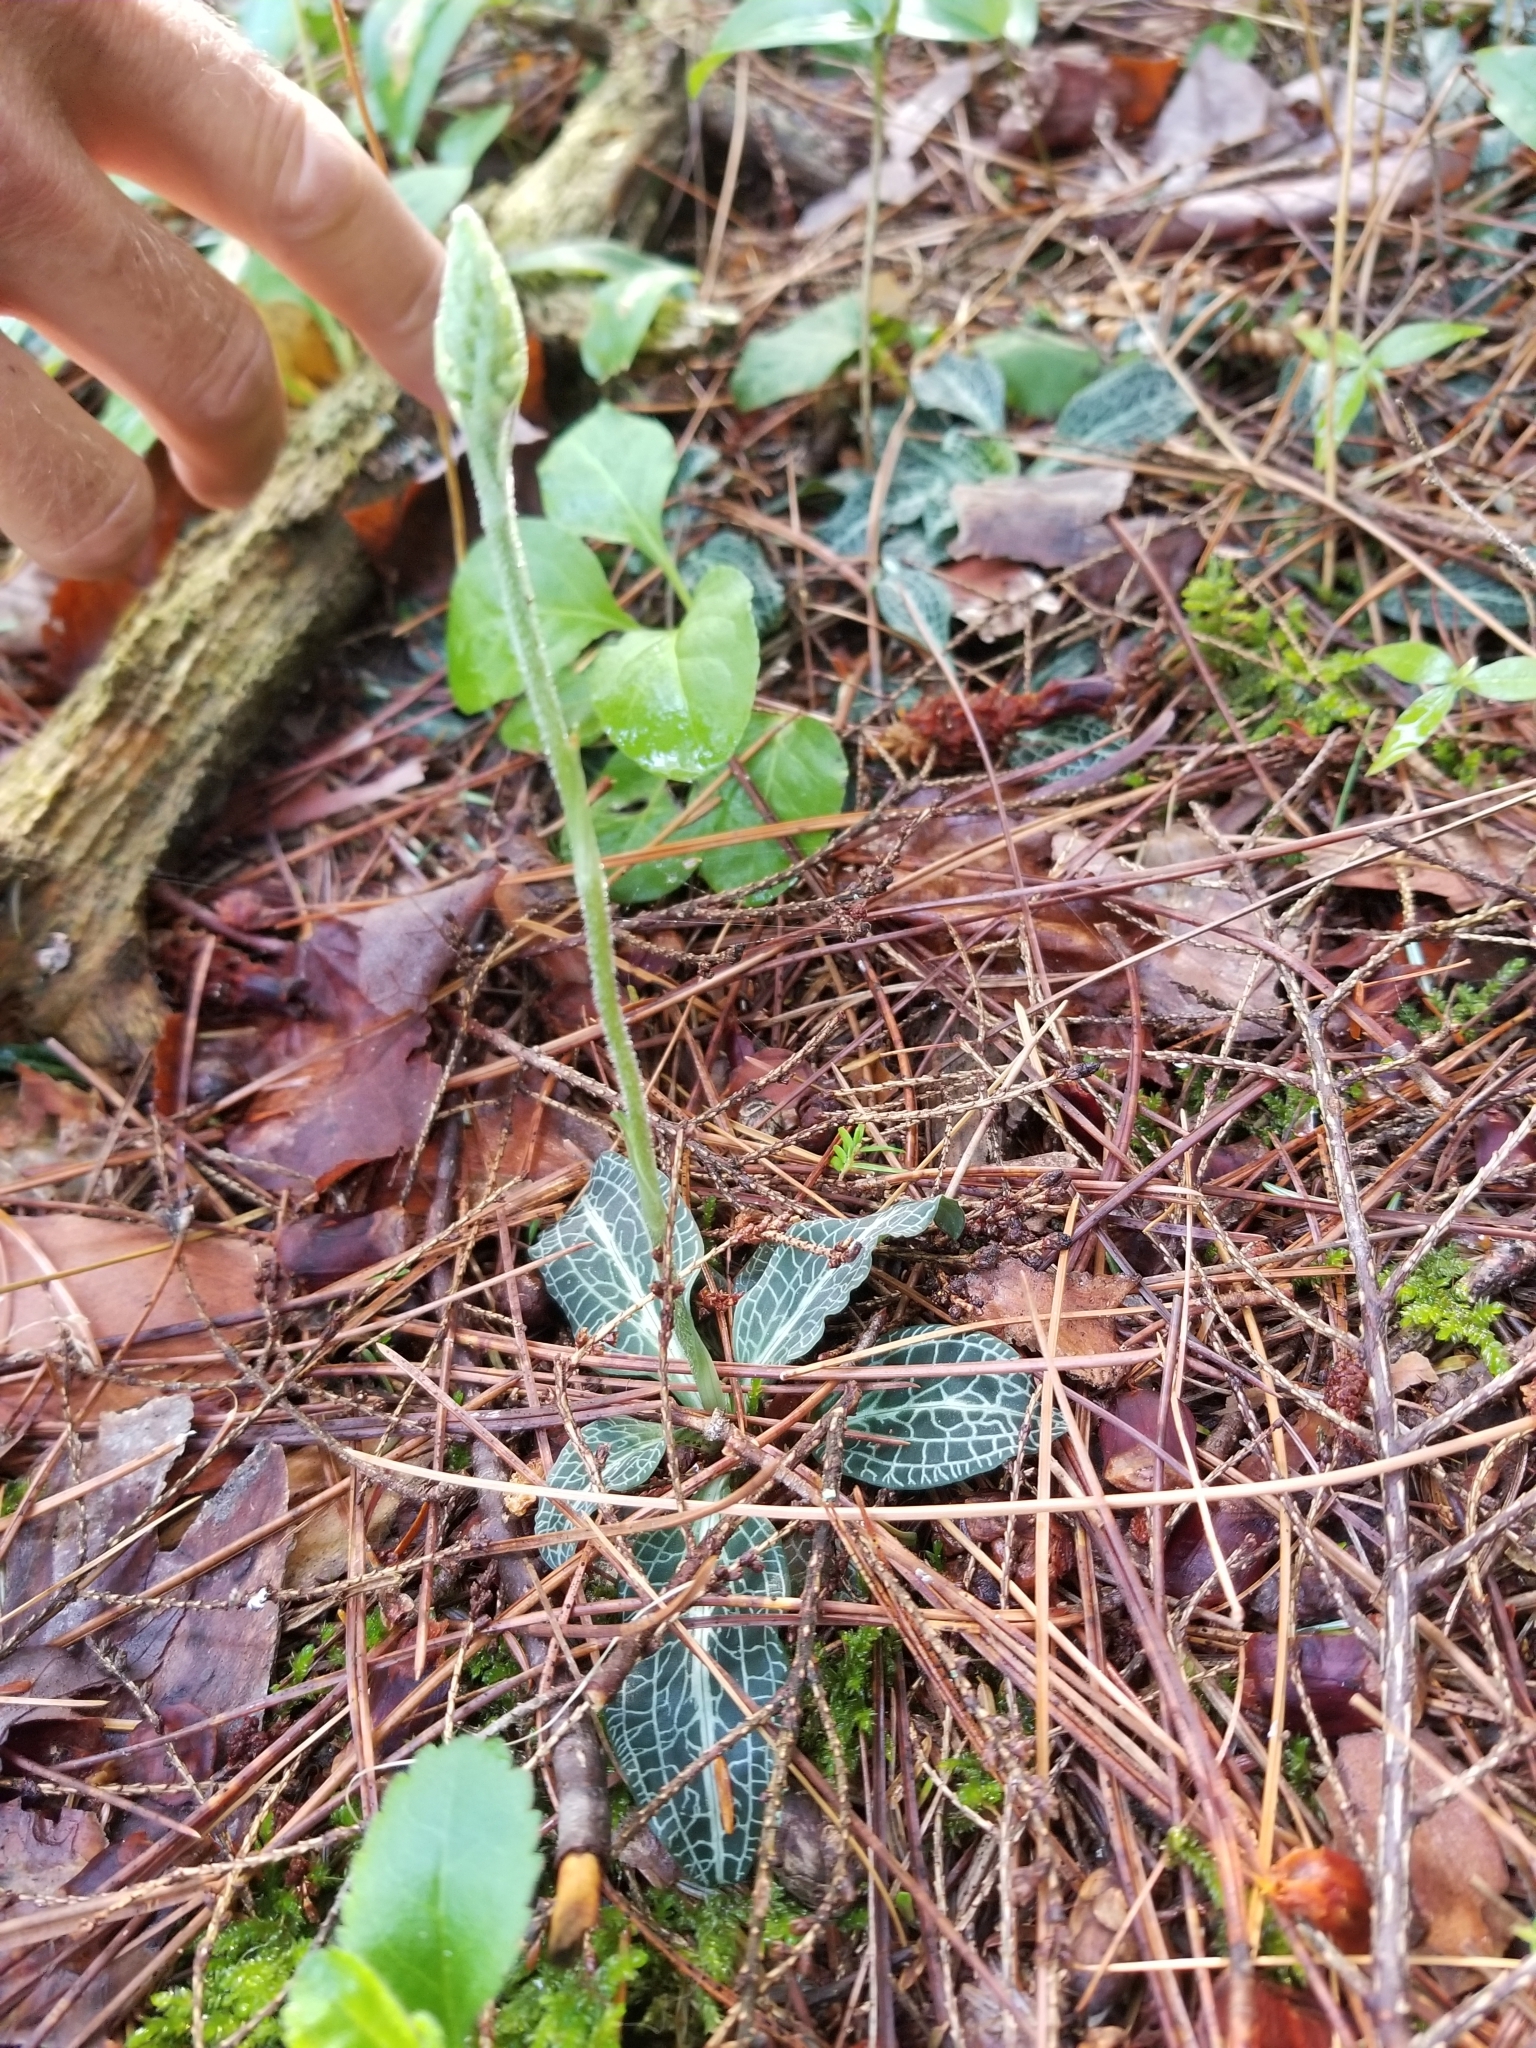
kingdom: Plantae
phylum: Tracheophyta
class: Liliopsida
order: Asparagales
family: Orchidaceae
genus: Goodyera
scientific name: Goodyera pubescens
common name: Downy rattlesnake-plantain
